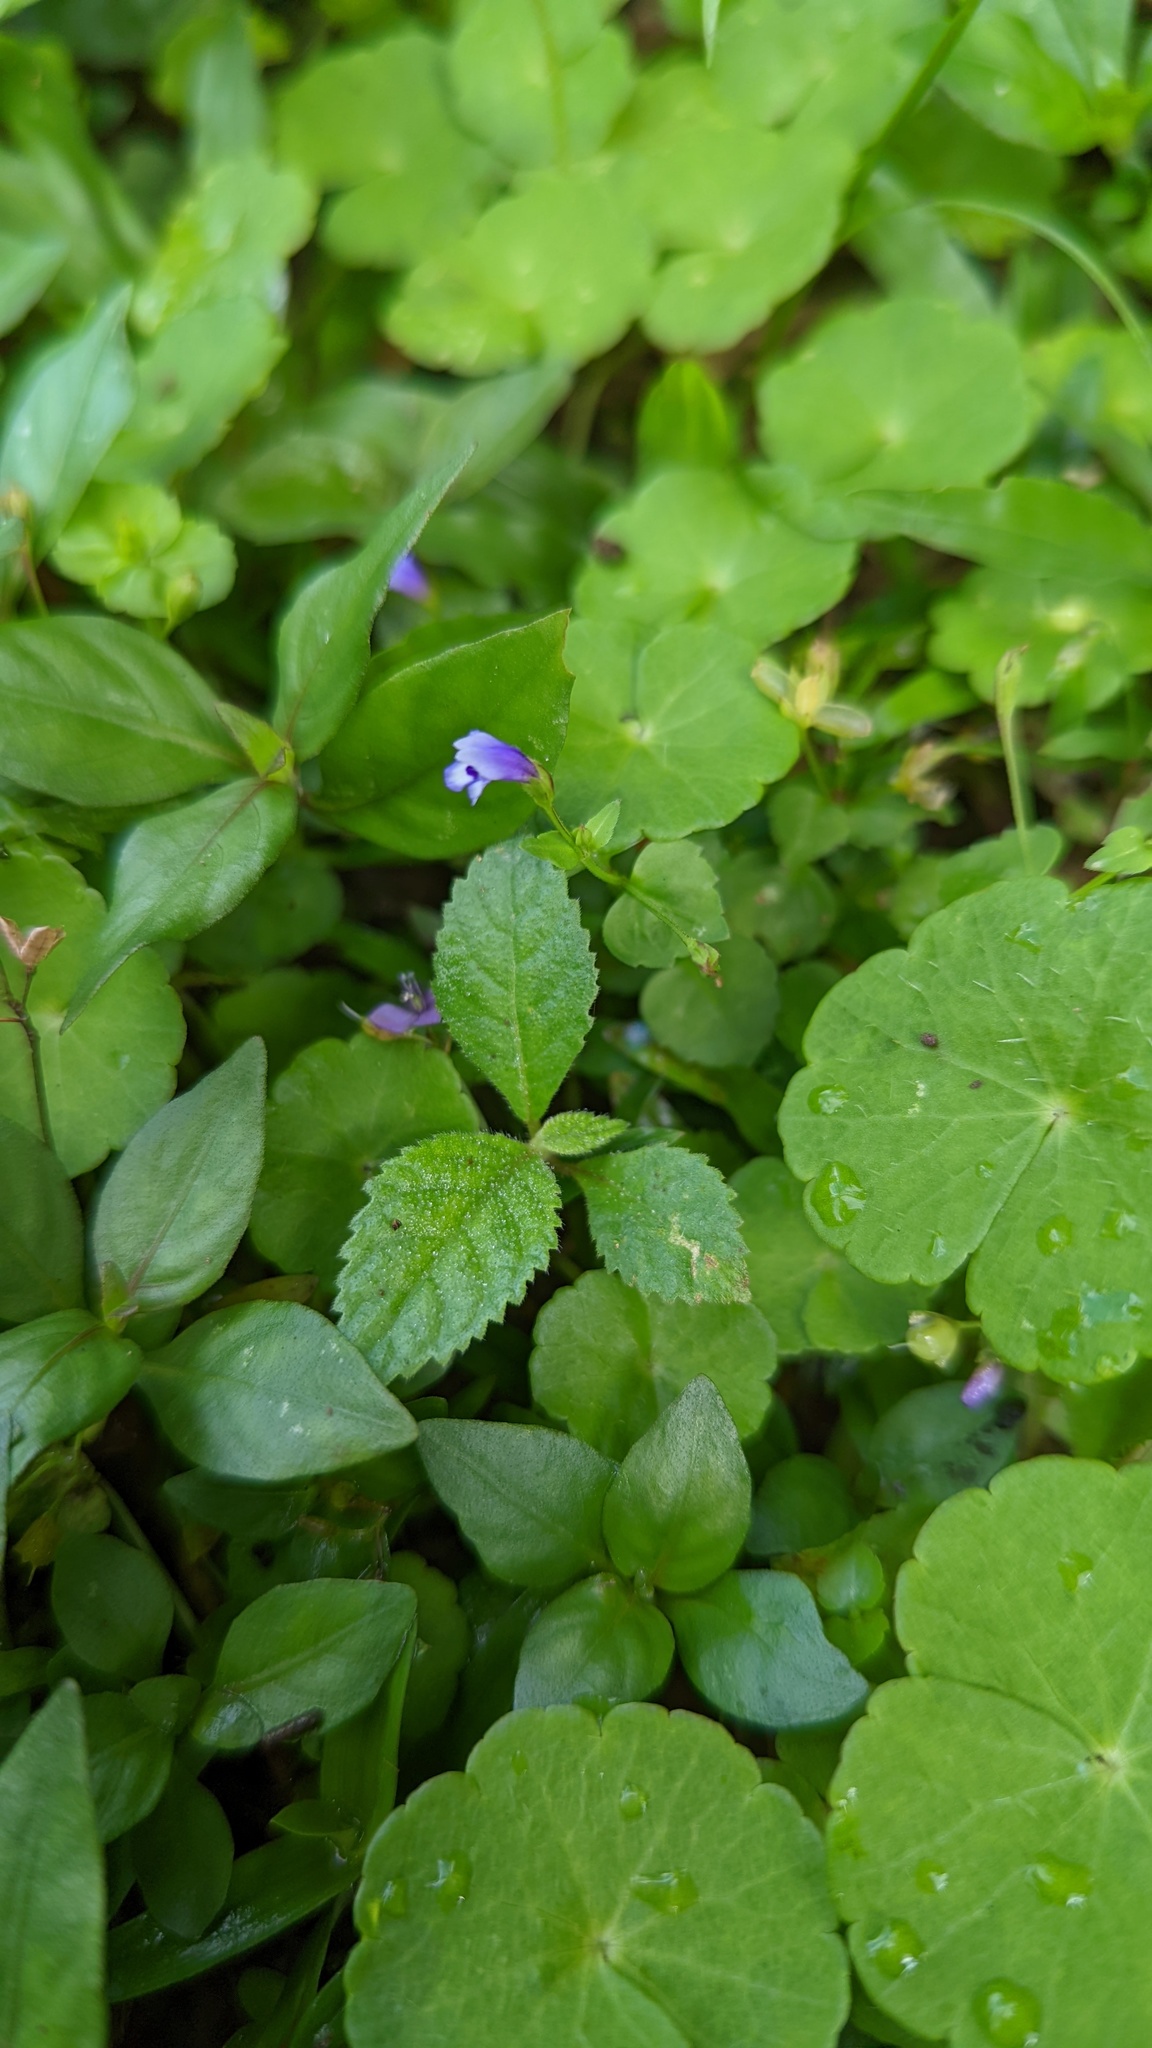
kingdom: Plantae
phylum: Tracheophyta
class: Magnoliopsida
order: Lamiales
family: Linderniaceae
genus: Torenia
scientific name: Torenia crustacea
